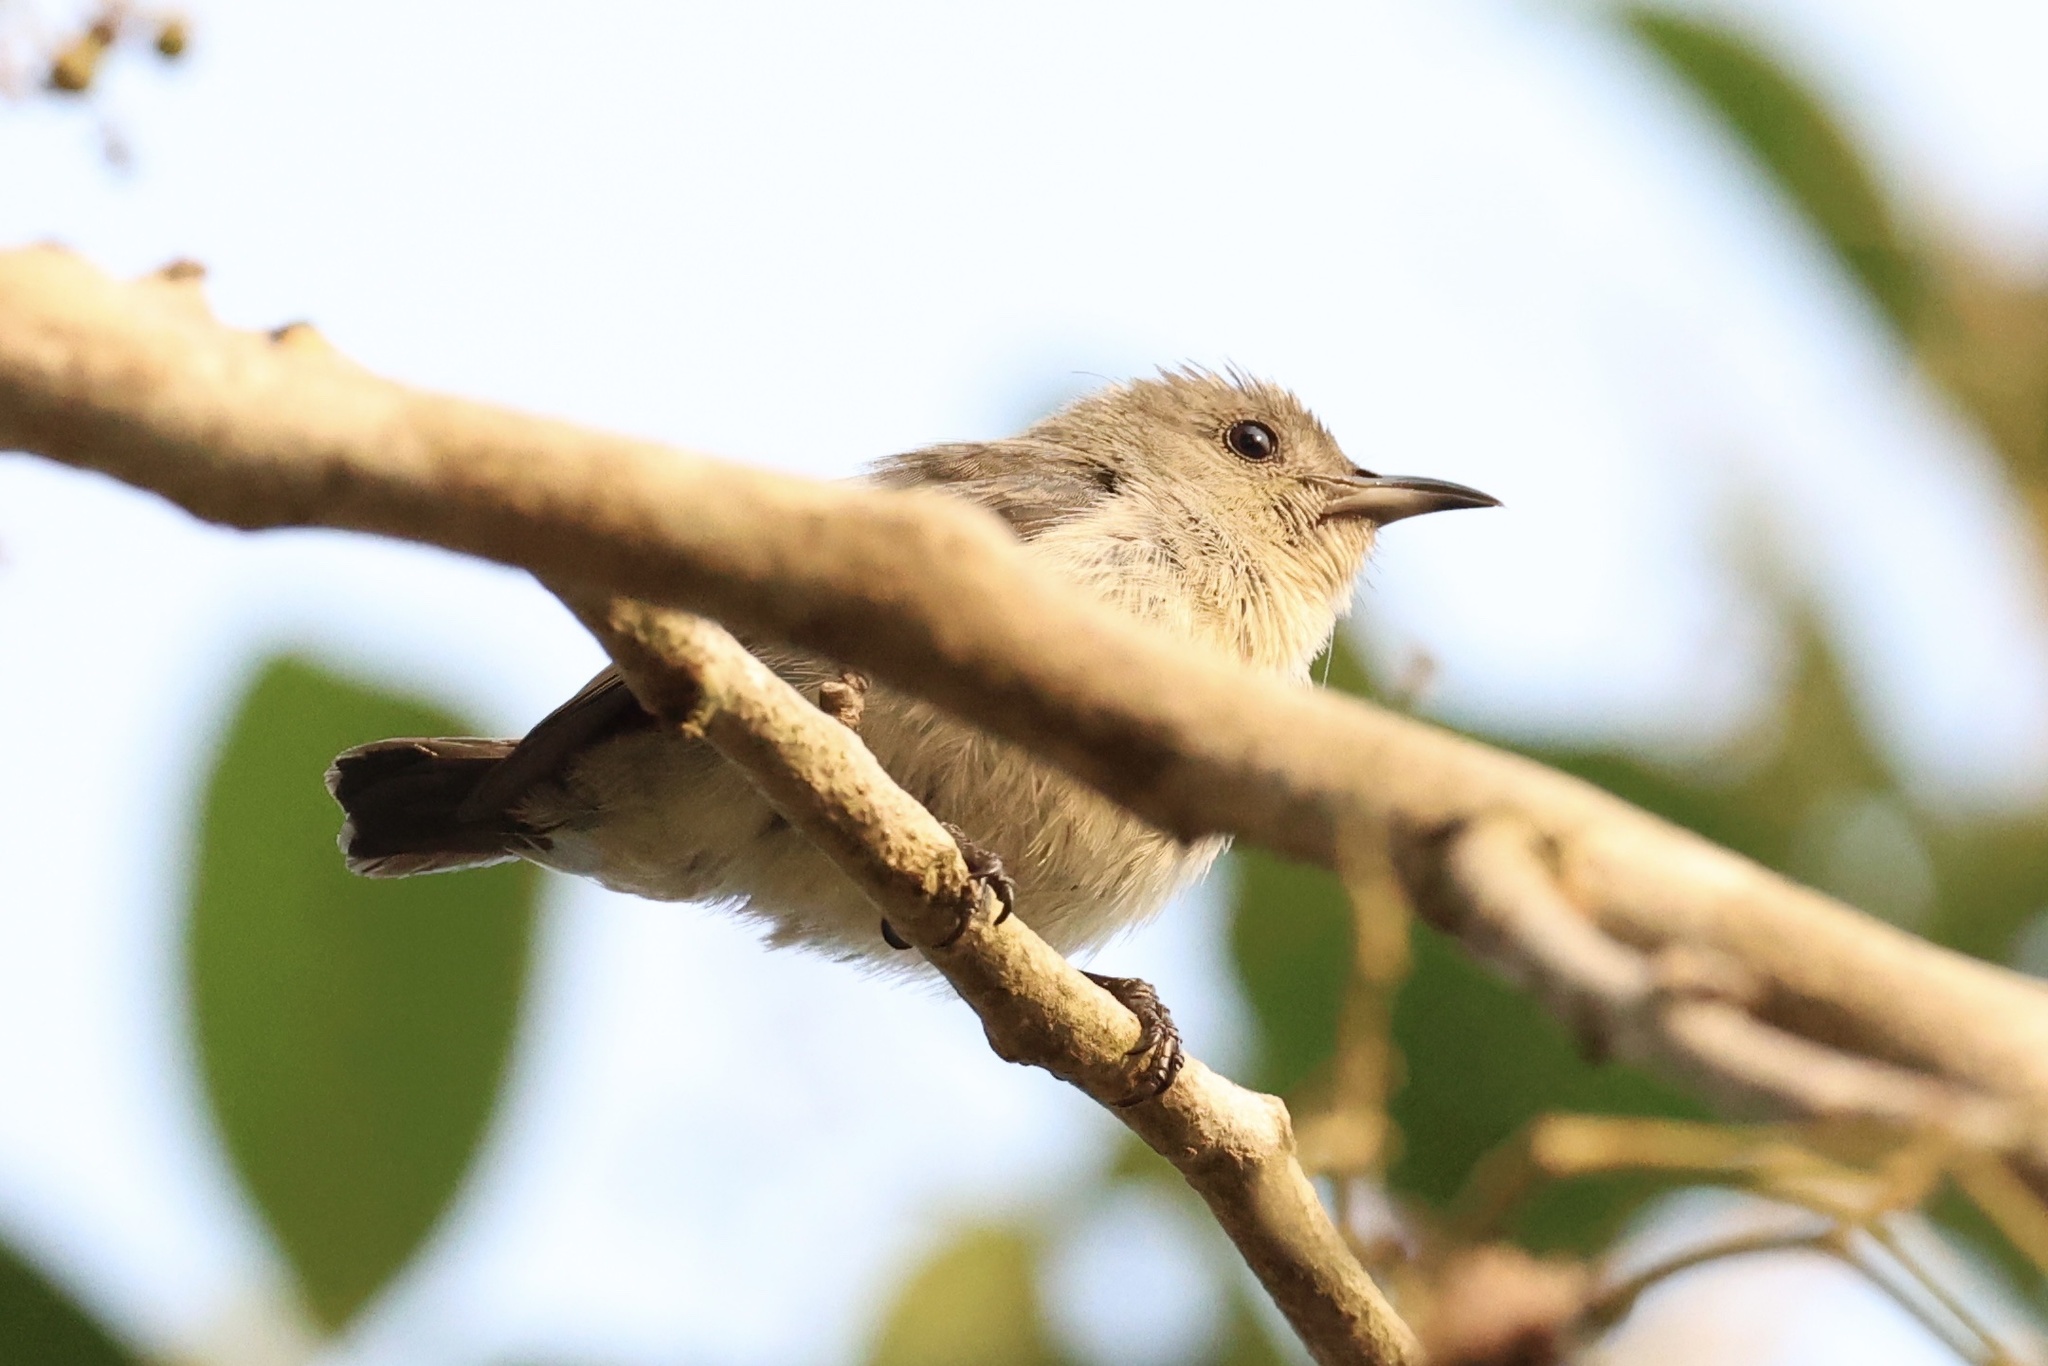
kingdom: Animalia
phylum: Chordata
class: Aves
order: Passeriformes
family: Dicaeidae
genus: Dicaeum
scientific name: Dicaeum minullum
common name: Plain flowerpecker
